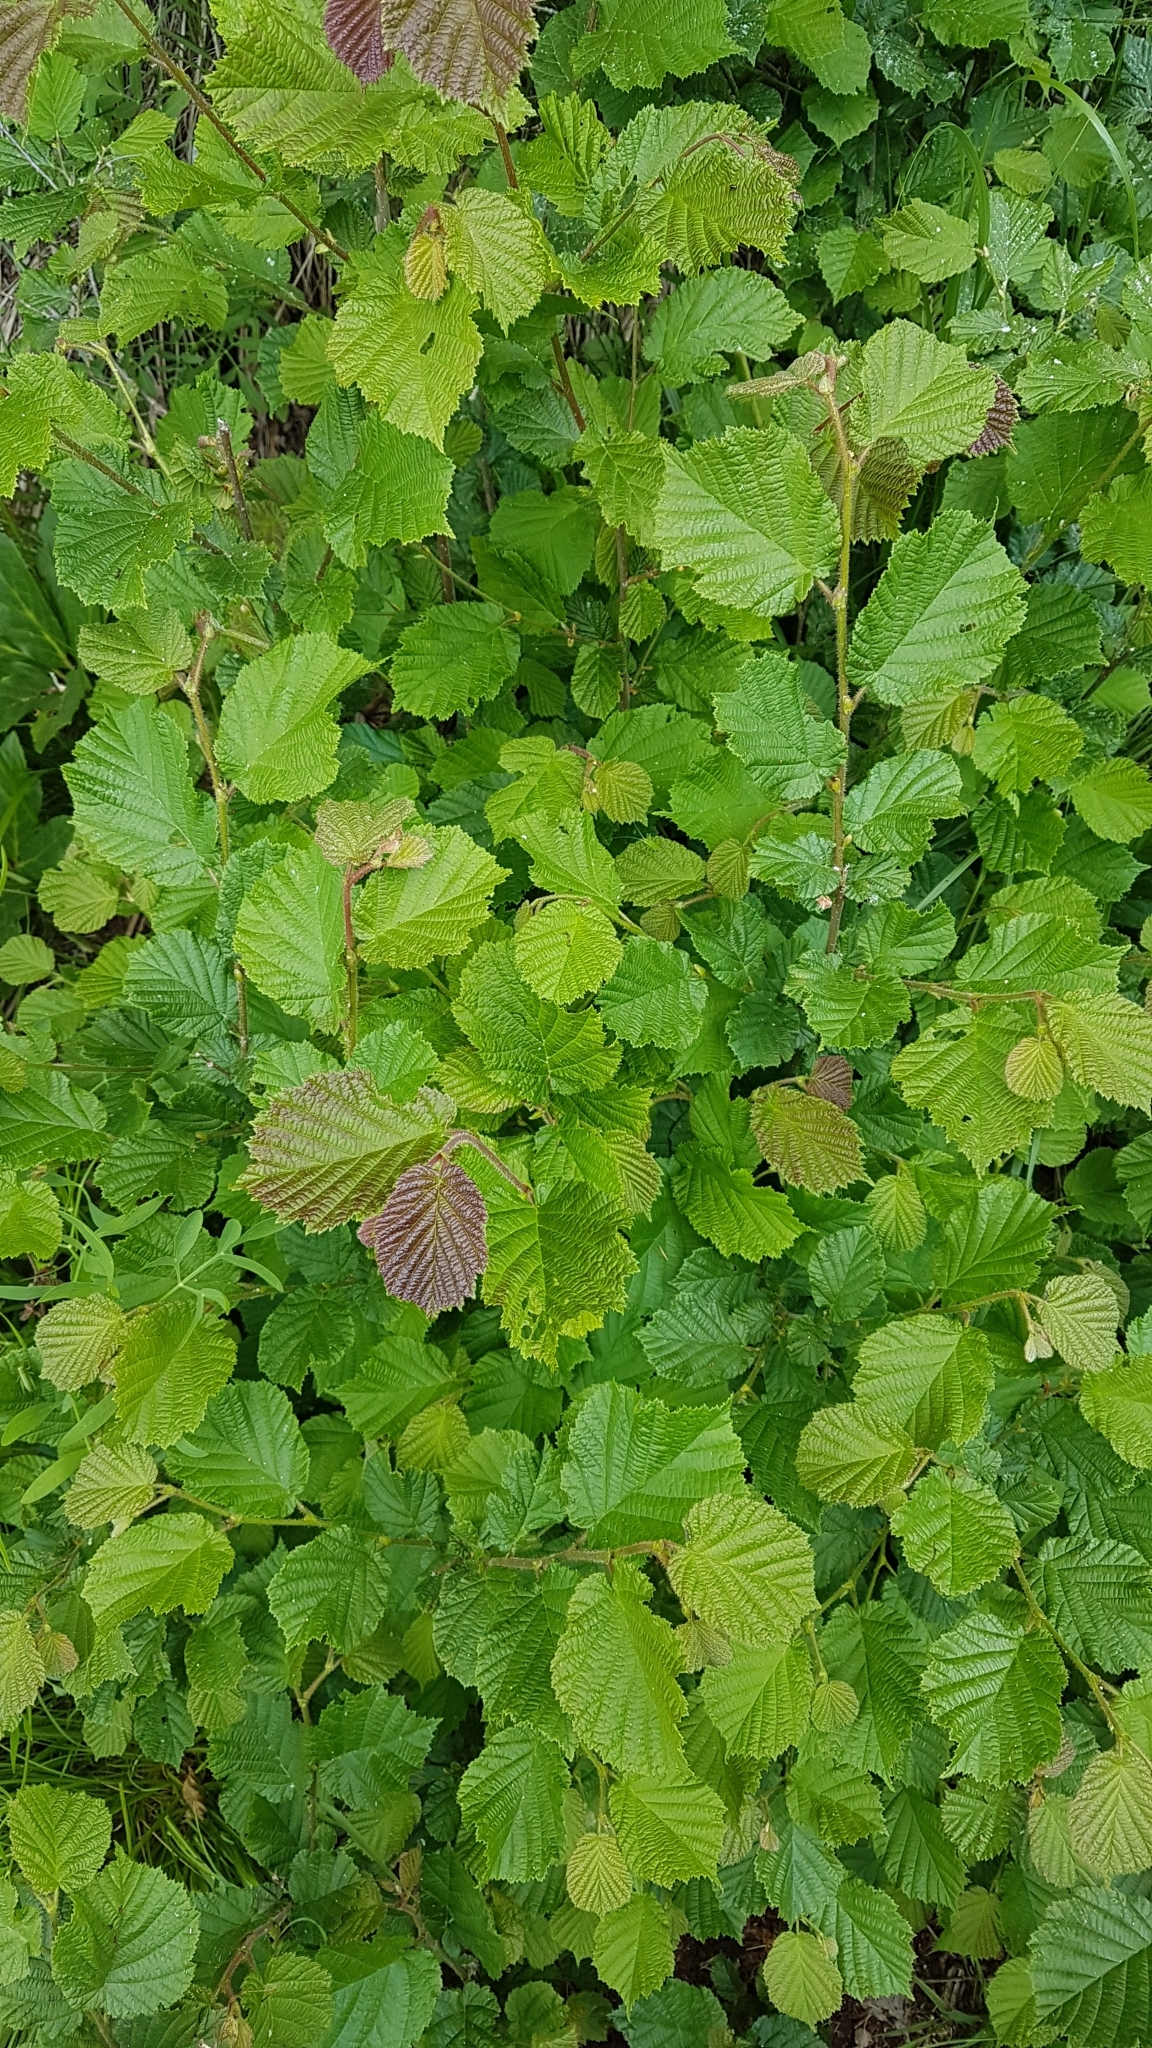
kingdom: Plantae
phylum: Tracheophyta
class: Magnoliopsida
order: Fagales
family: Betulaceae
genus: Corylus
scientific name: Corylus avellana
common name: European hazel
